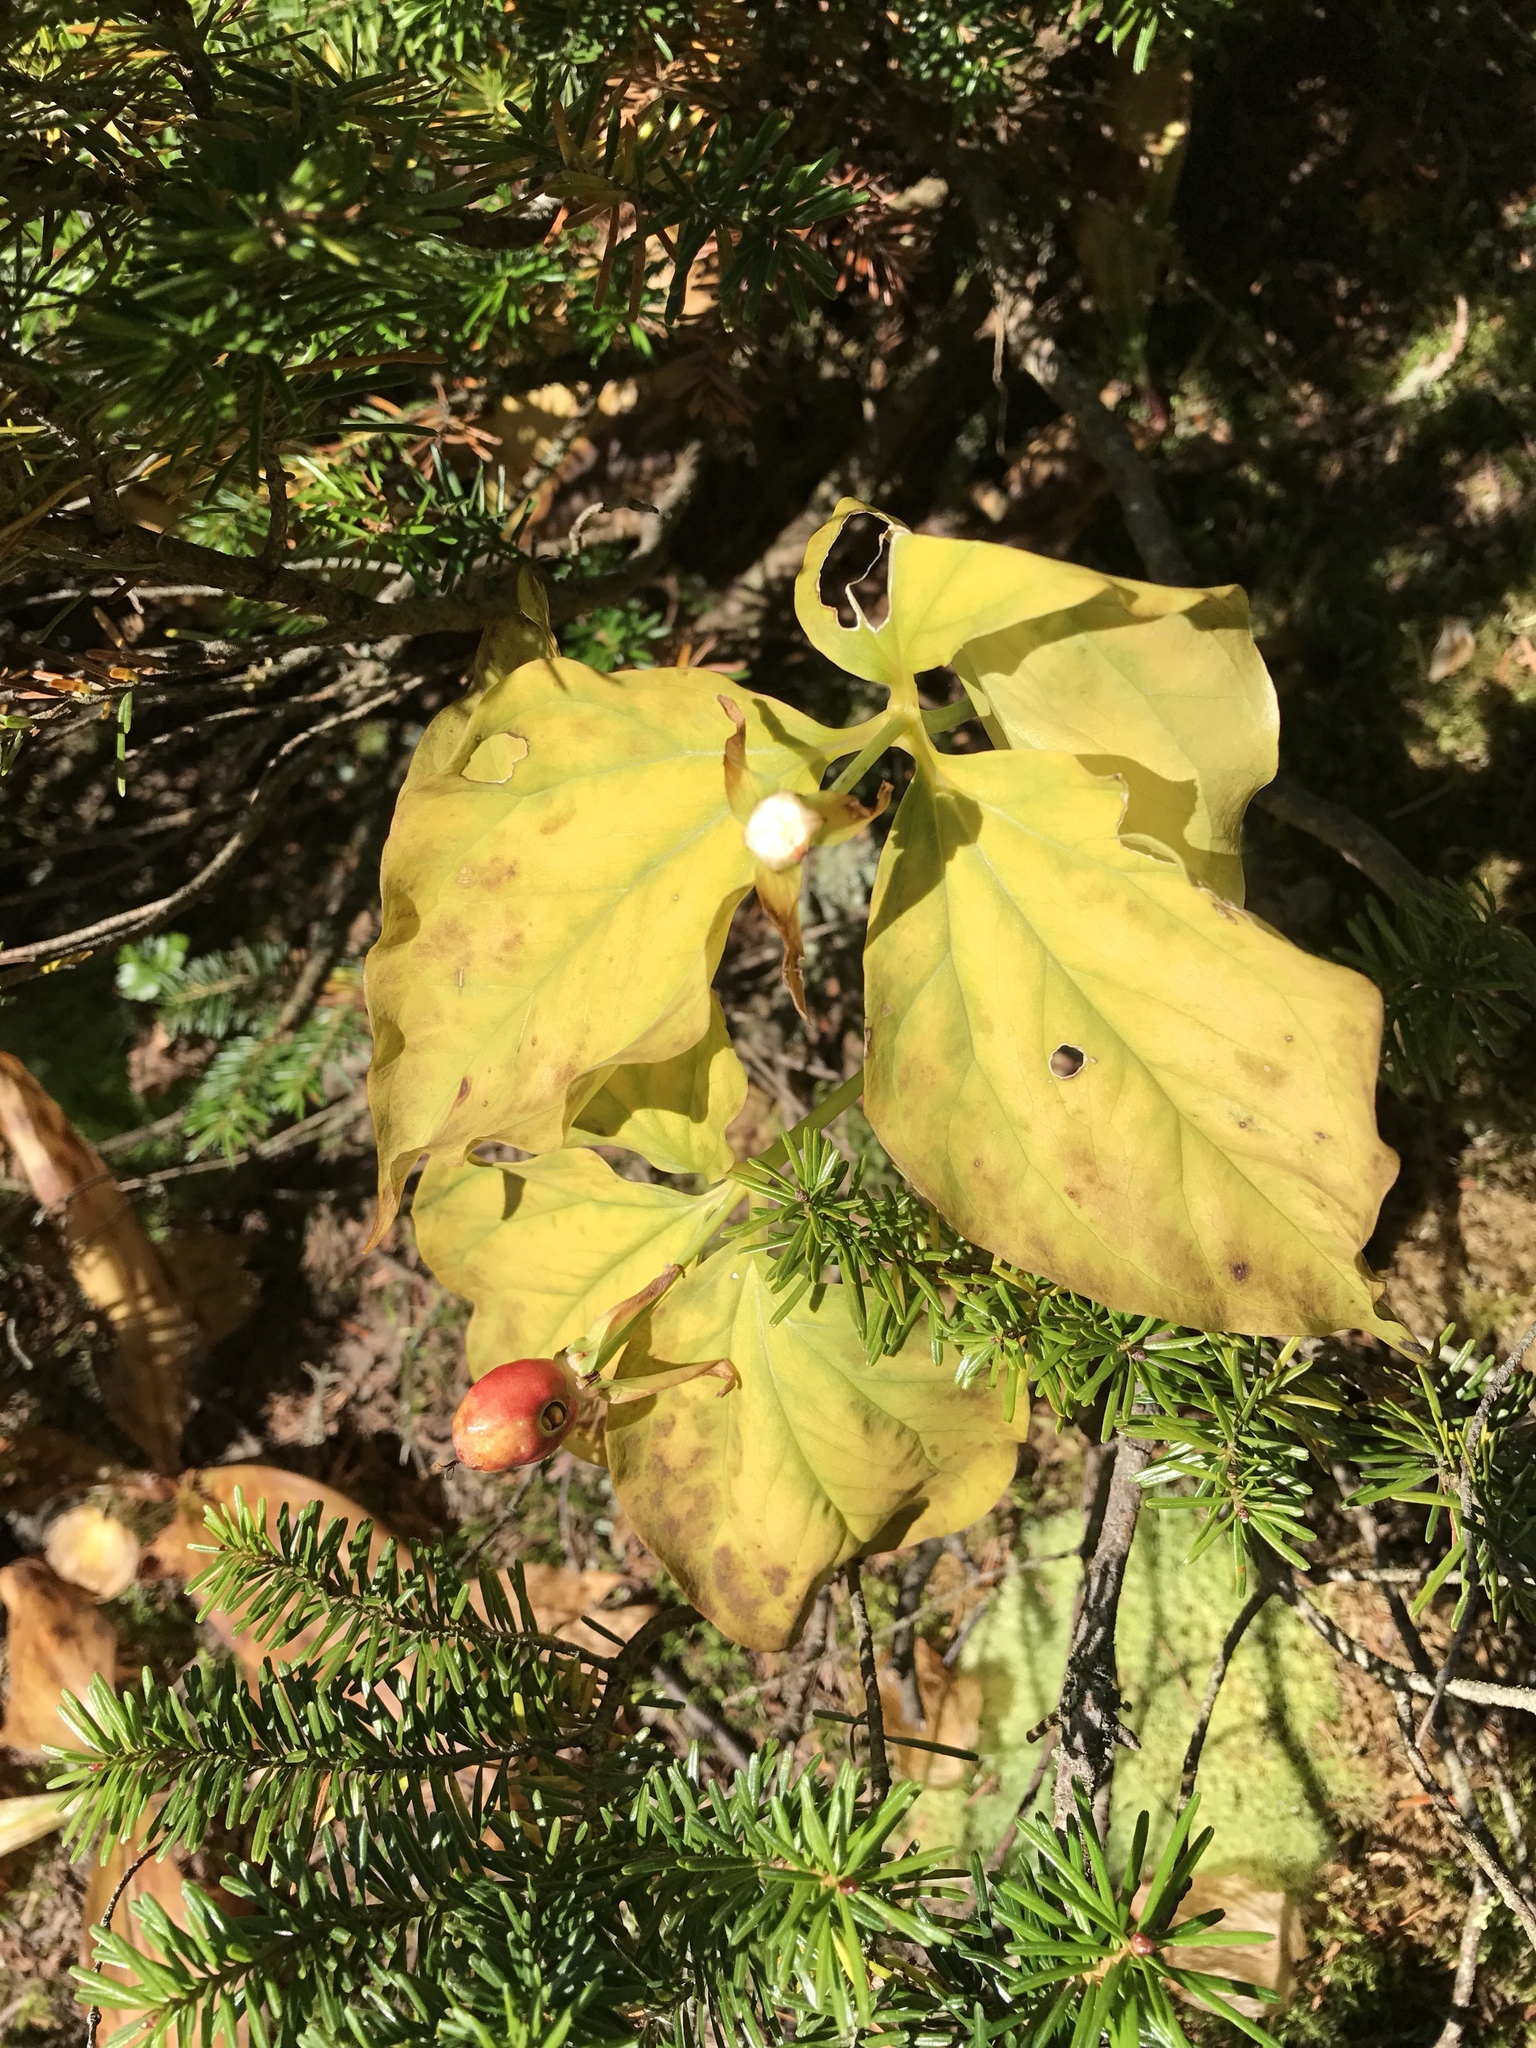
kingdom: Plantae
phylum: Tracheophyta
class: Liliopsida
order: Liliales
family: Melanthiaceae
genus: Trillium
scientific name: Trillium undulatum
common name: Paint trillium
